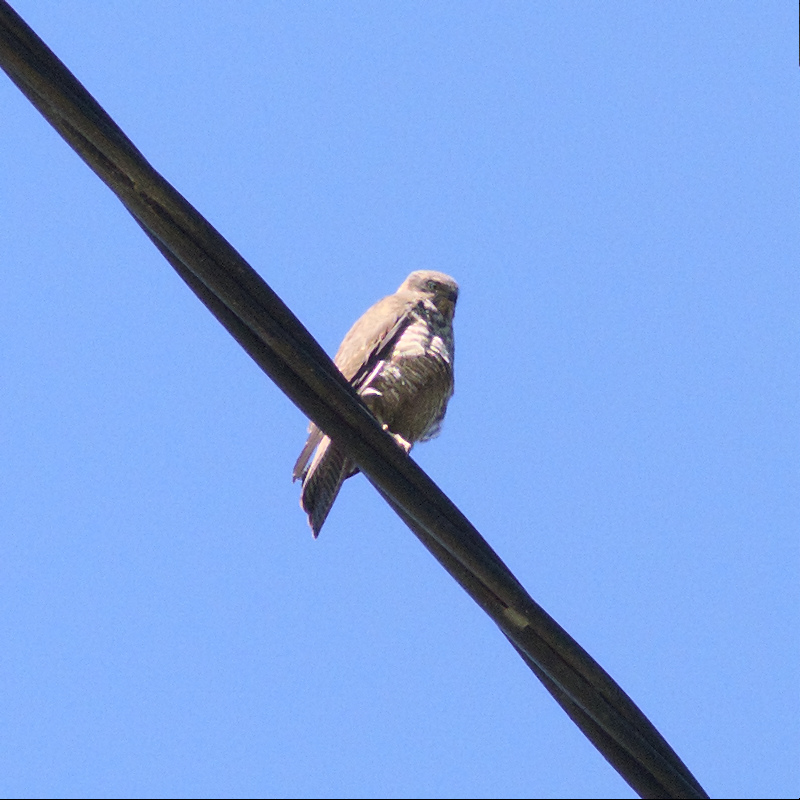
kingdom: Animalia
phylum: Chordata
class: Aves
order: Accipitriformes
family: Accipitridae
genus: Accipiter
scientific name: Accipiter cirrocephalus
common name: Collared sparrowhawk
